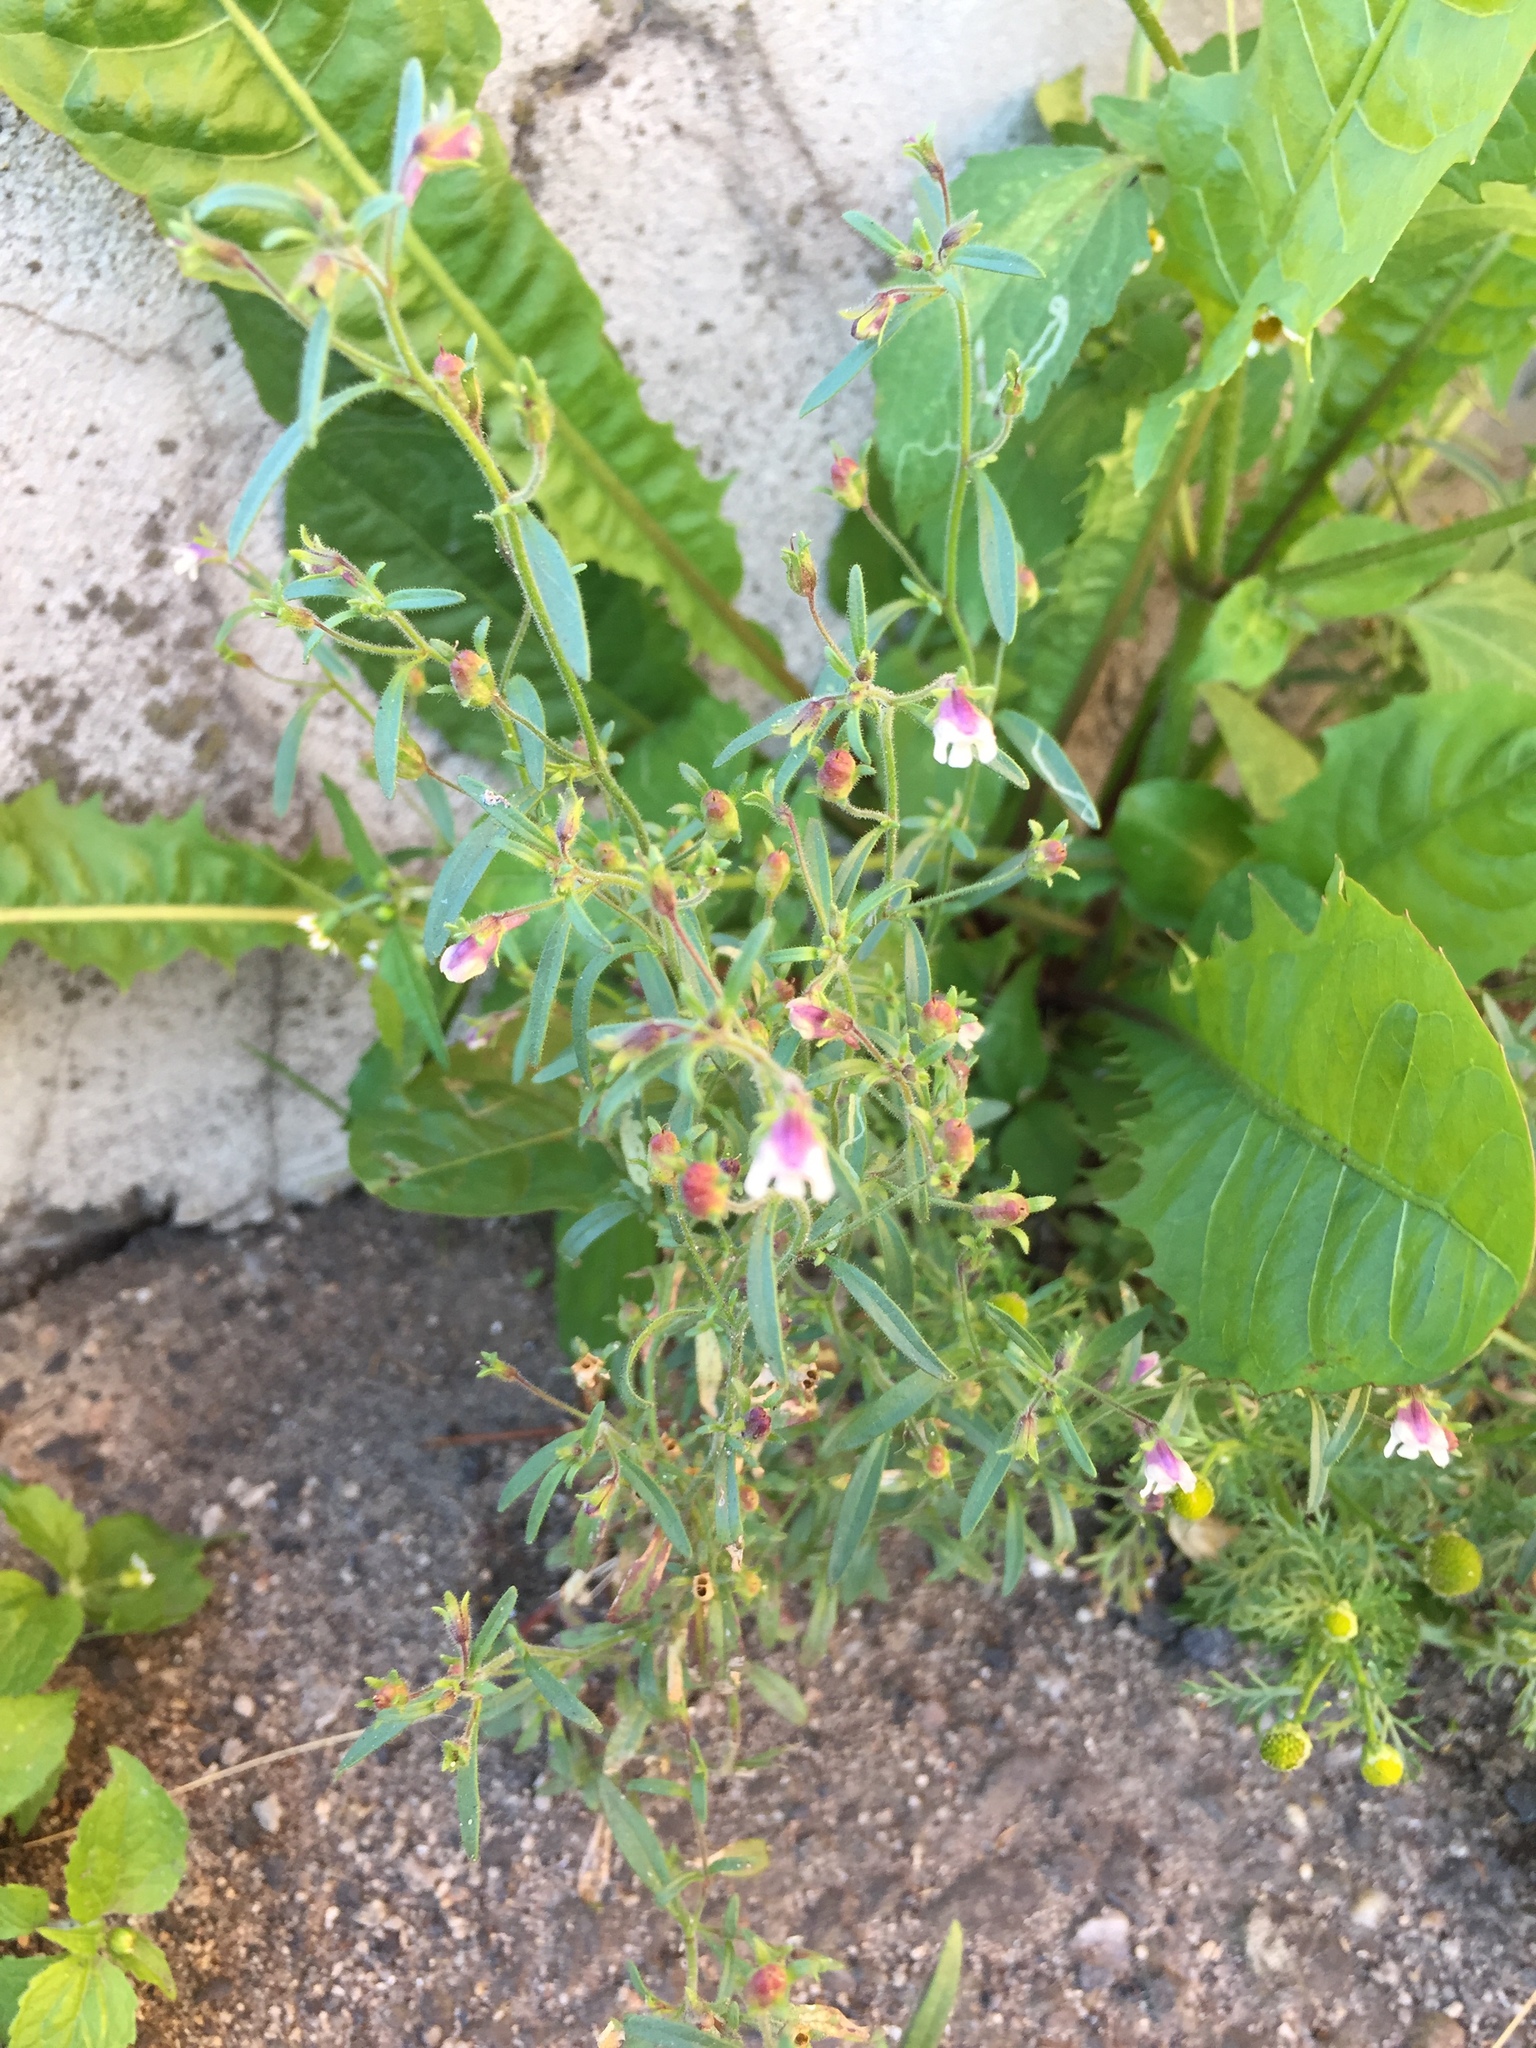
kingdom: Plantae
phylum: Tracheophyta
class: Magnoliopsida
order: Lamiales
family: Plantaginaceae
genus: Chaenorhinum
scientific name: Chaenorhinum minus
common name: Dwarf snapdragon
